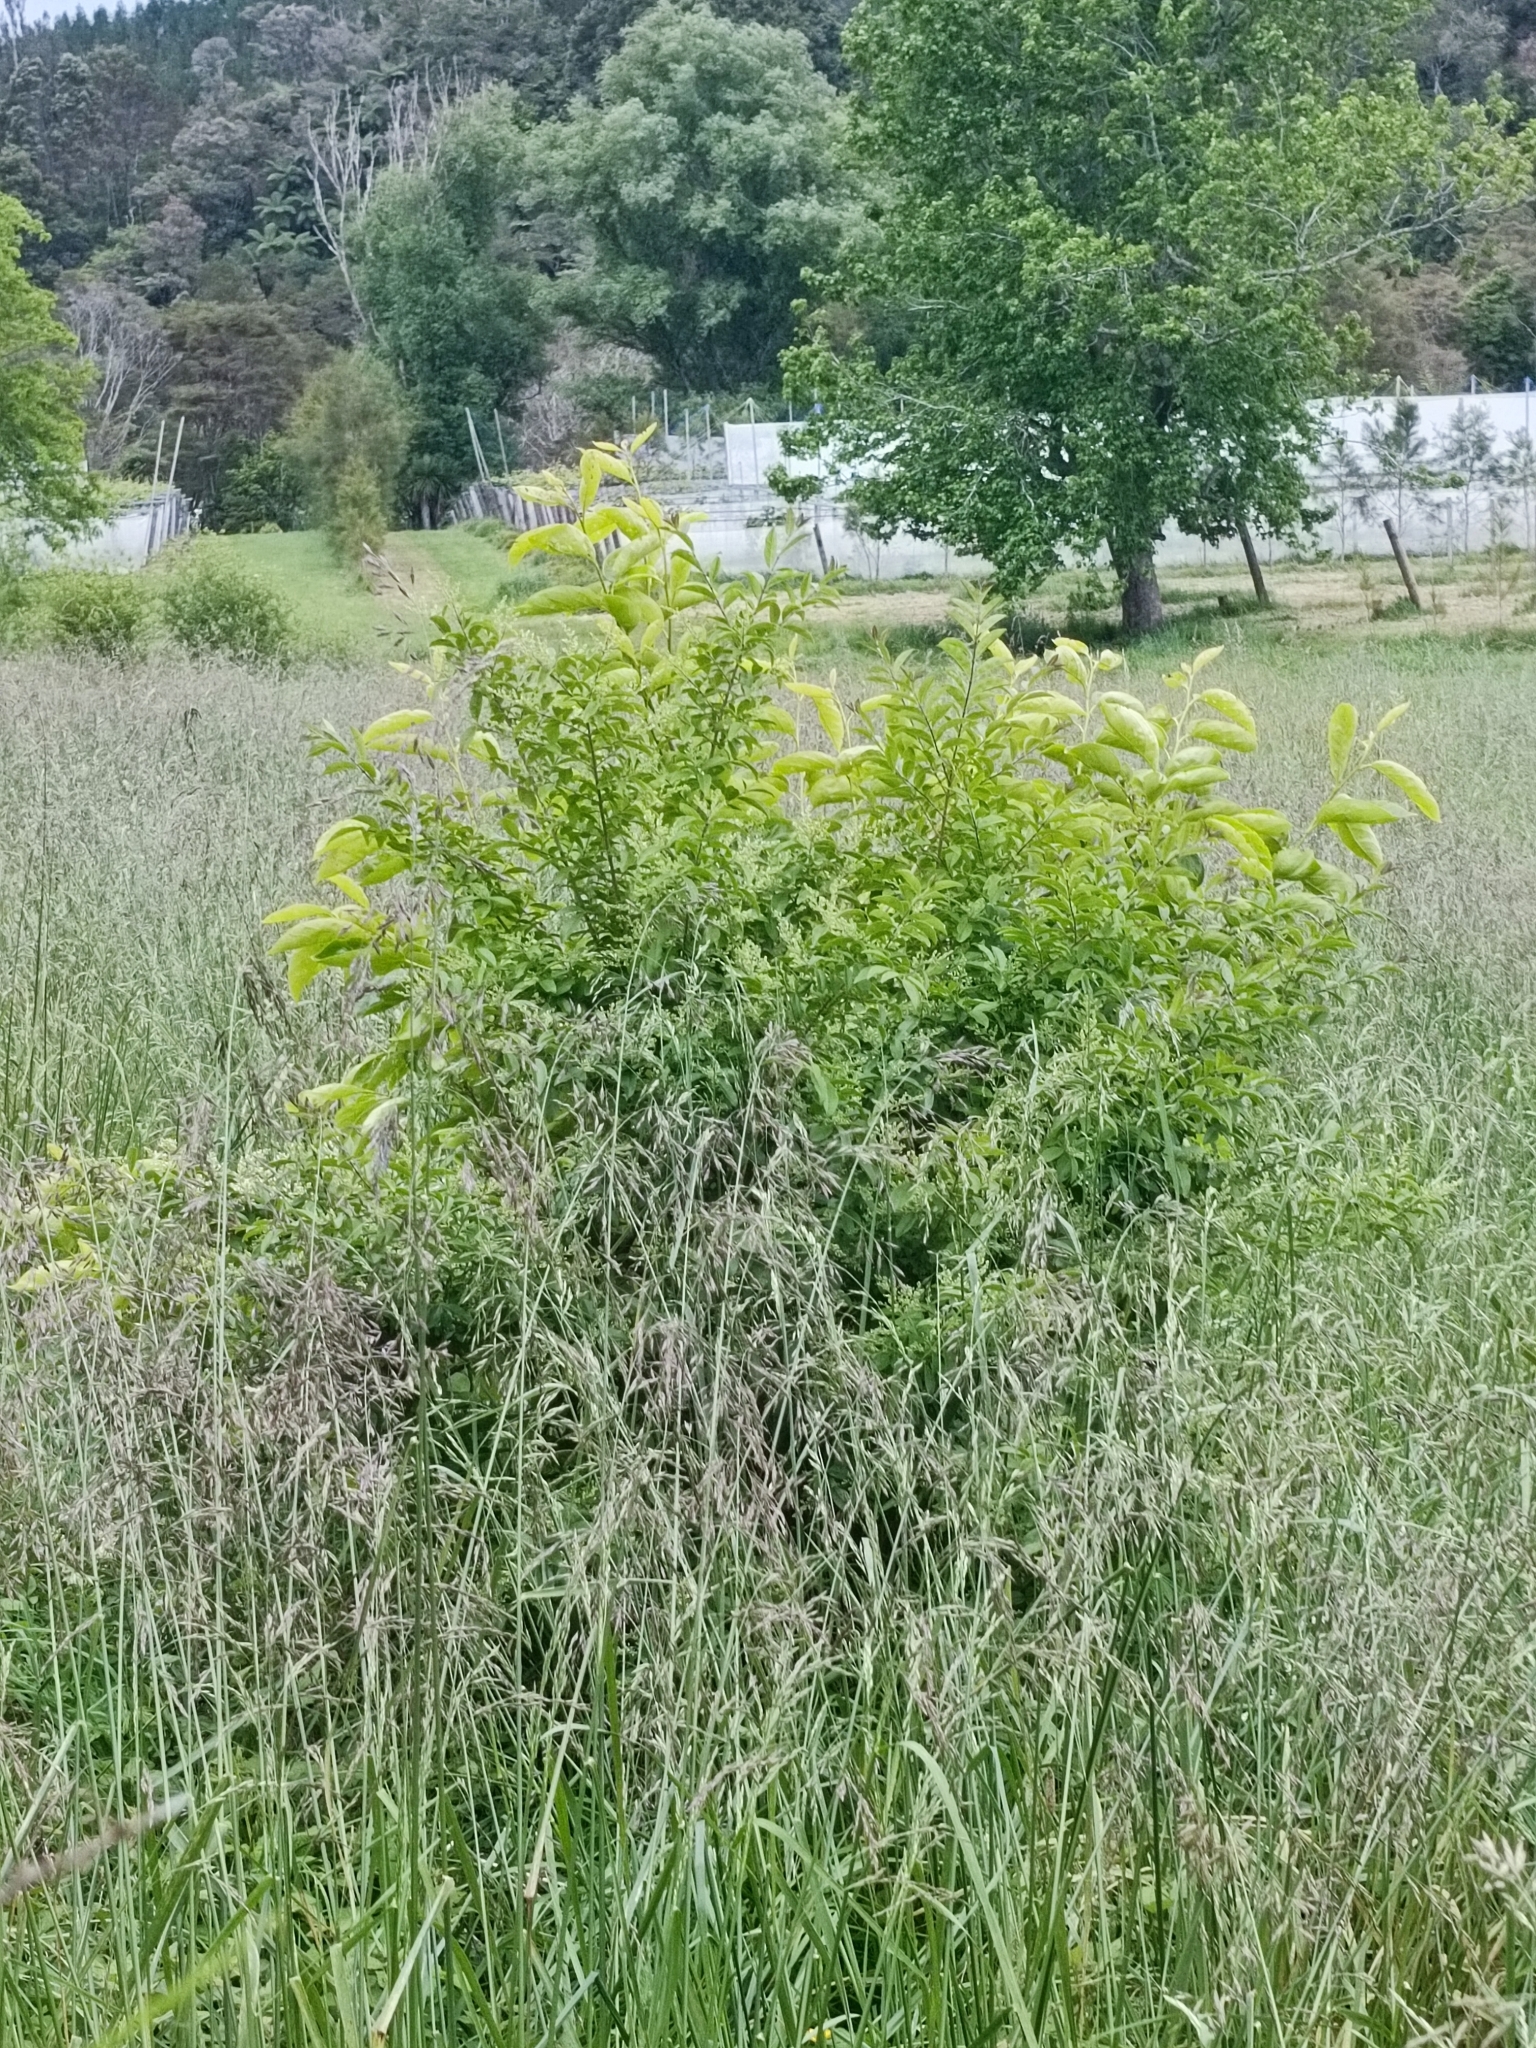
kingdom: Plantae
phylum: Tracheophyta
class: Magnoliopsida
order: Lamiales
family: Oleaceae
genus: Ligustrum
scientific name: Ligustrum sinense
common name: Chinese privet
